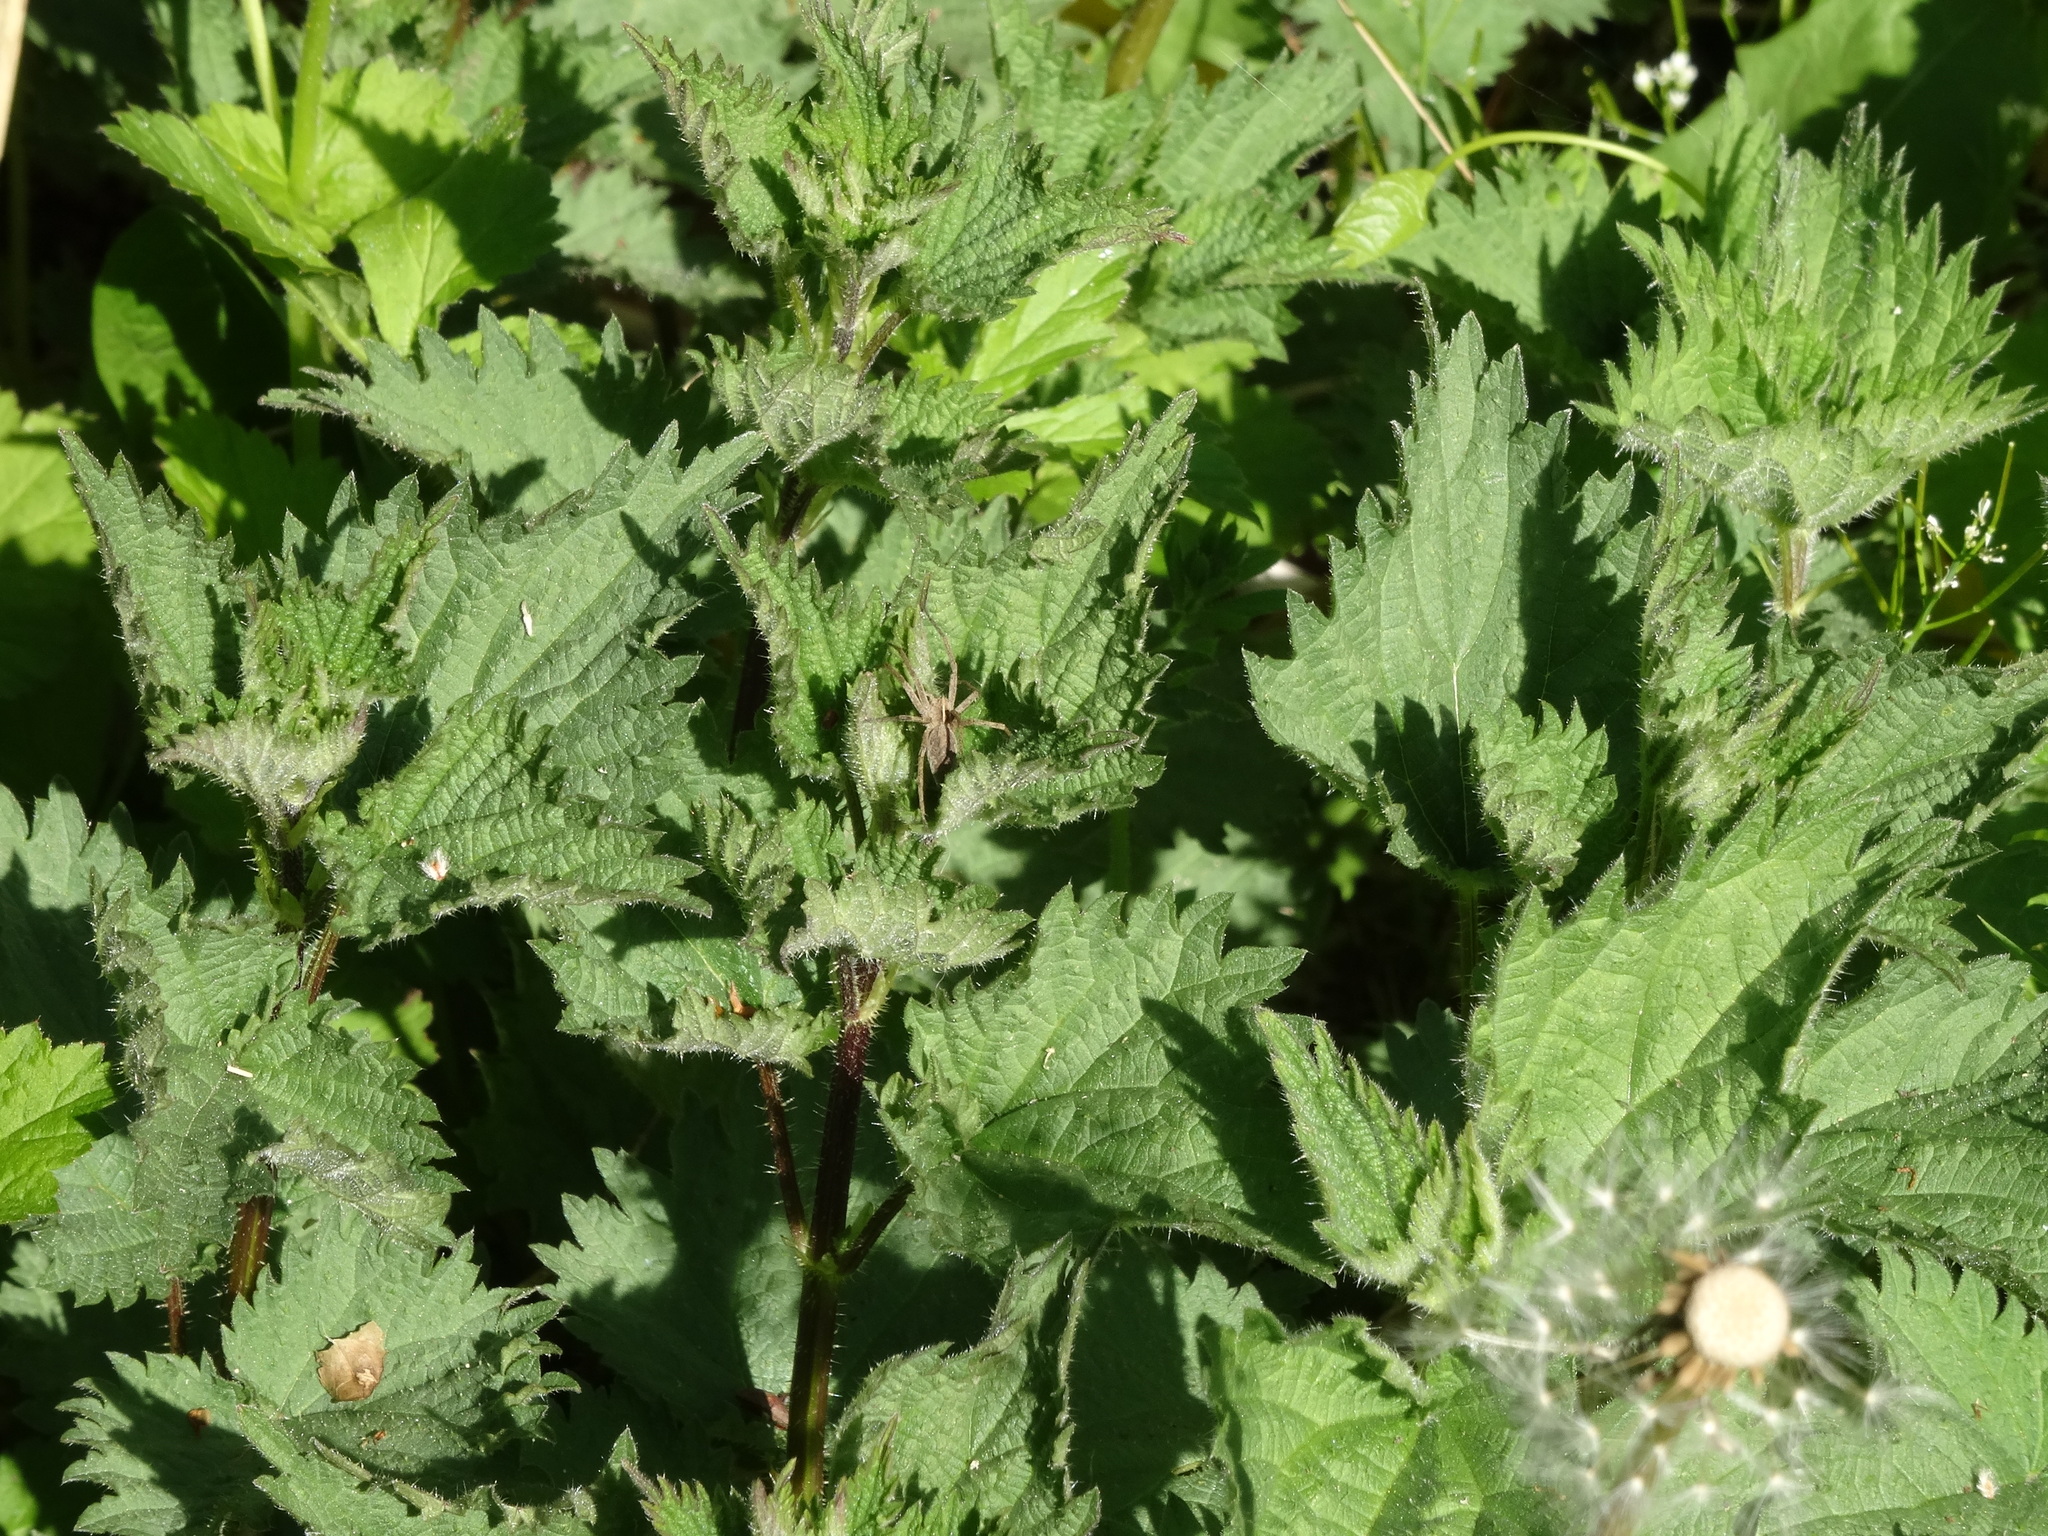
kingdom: Plantae
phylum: Tracheophyta
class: Magnoliopsida
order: Rosales
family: Urticaceae
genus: Urtica
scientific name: Urtica dioica
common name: Common nettle
